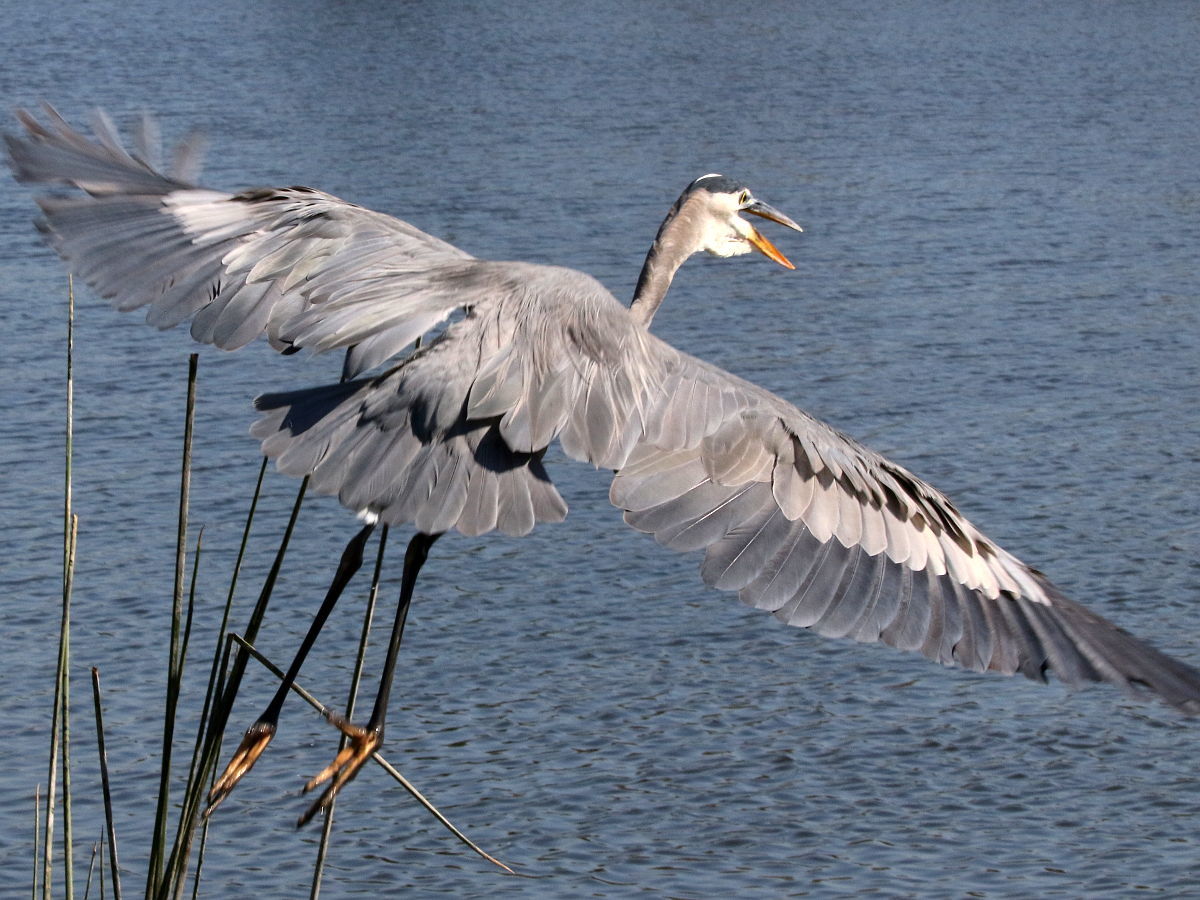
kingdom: Animalia
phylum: Chordata
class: Aves
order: Pelecaniformes
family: Ardeidae
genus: Ardea
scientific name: Ardea herodias
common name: Great blue heron
